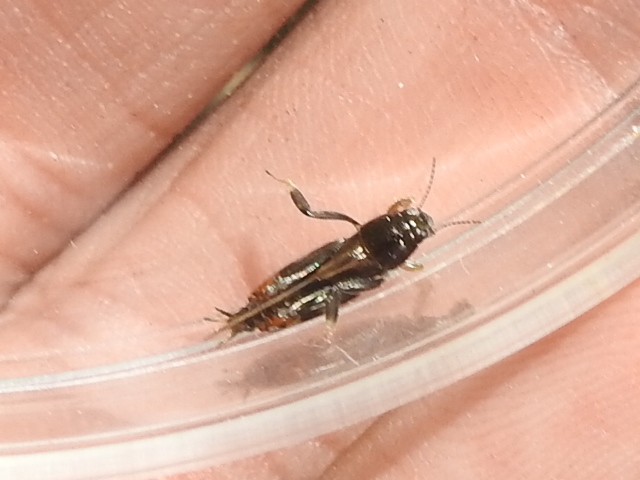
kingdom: Animalia
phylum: Arthropoda
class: Insecta
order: Orthoptera
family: Tridactylidae
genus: Neotridactylus
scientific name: Neotridactylus apicialis
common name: Larger pygmy locust
